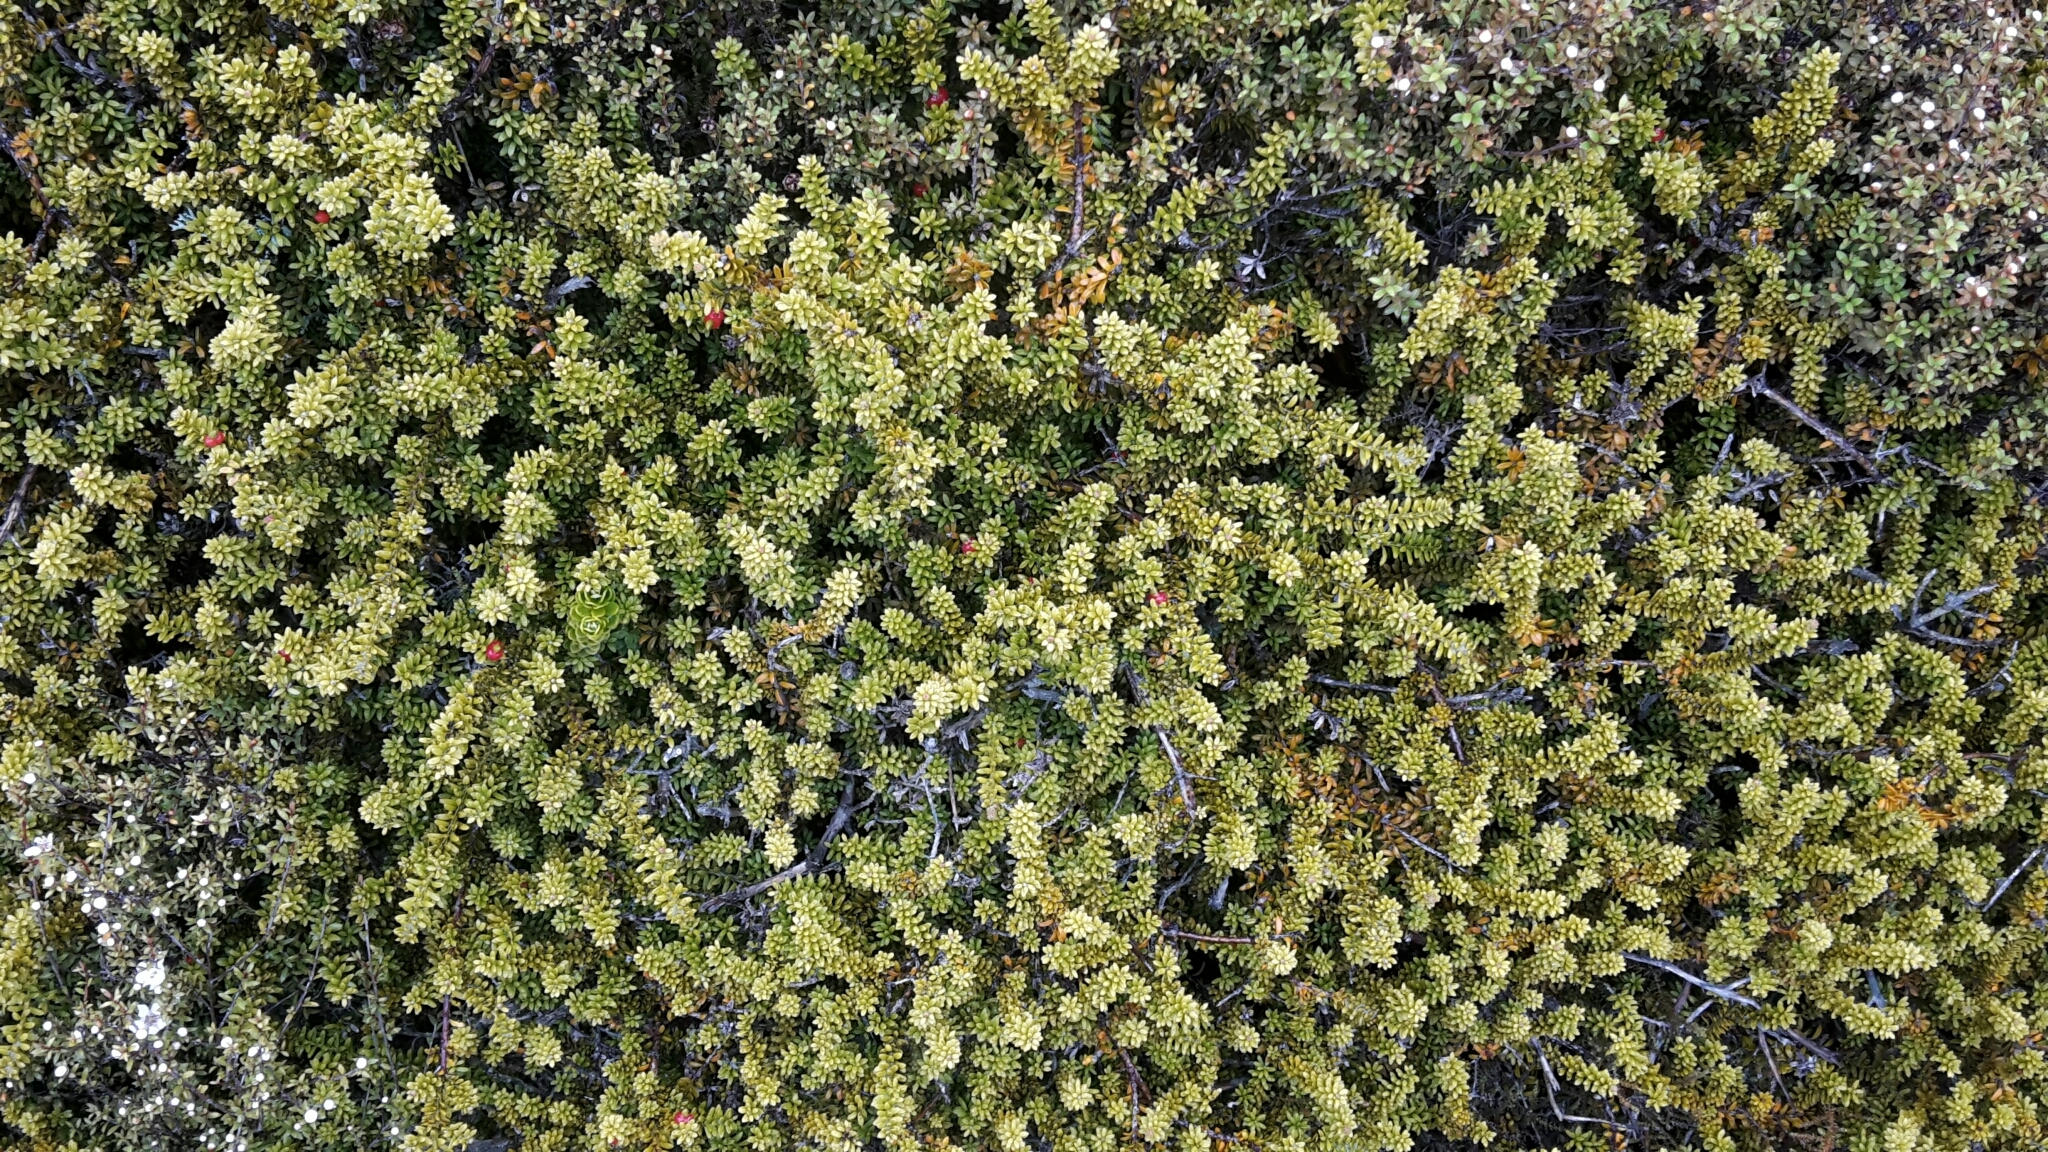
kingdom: Plantae
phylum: Tracheophyta
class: Pinopsida
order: Pinales
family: Podocarpaceae
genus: Podocarpus
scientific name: Podocarpus nivalis
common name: Alpine totara
